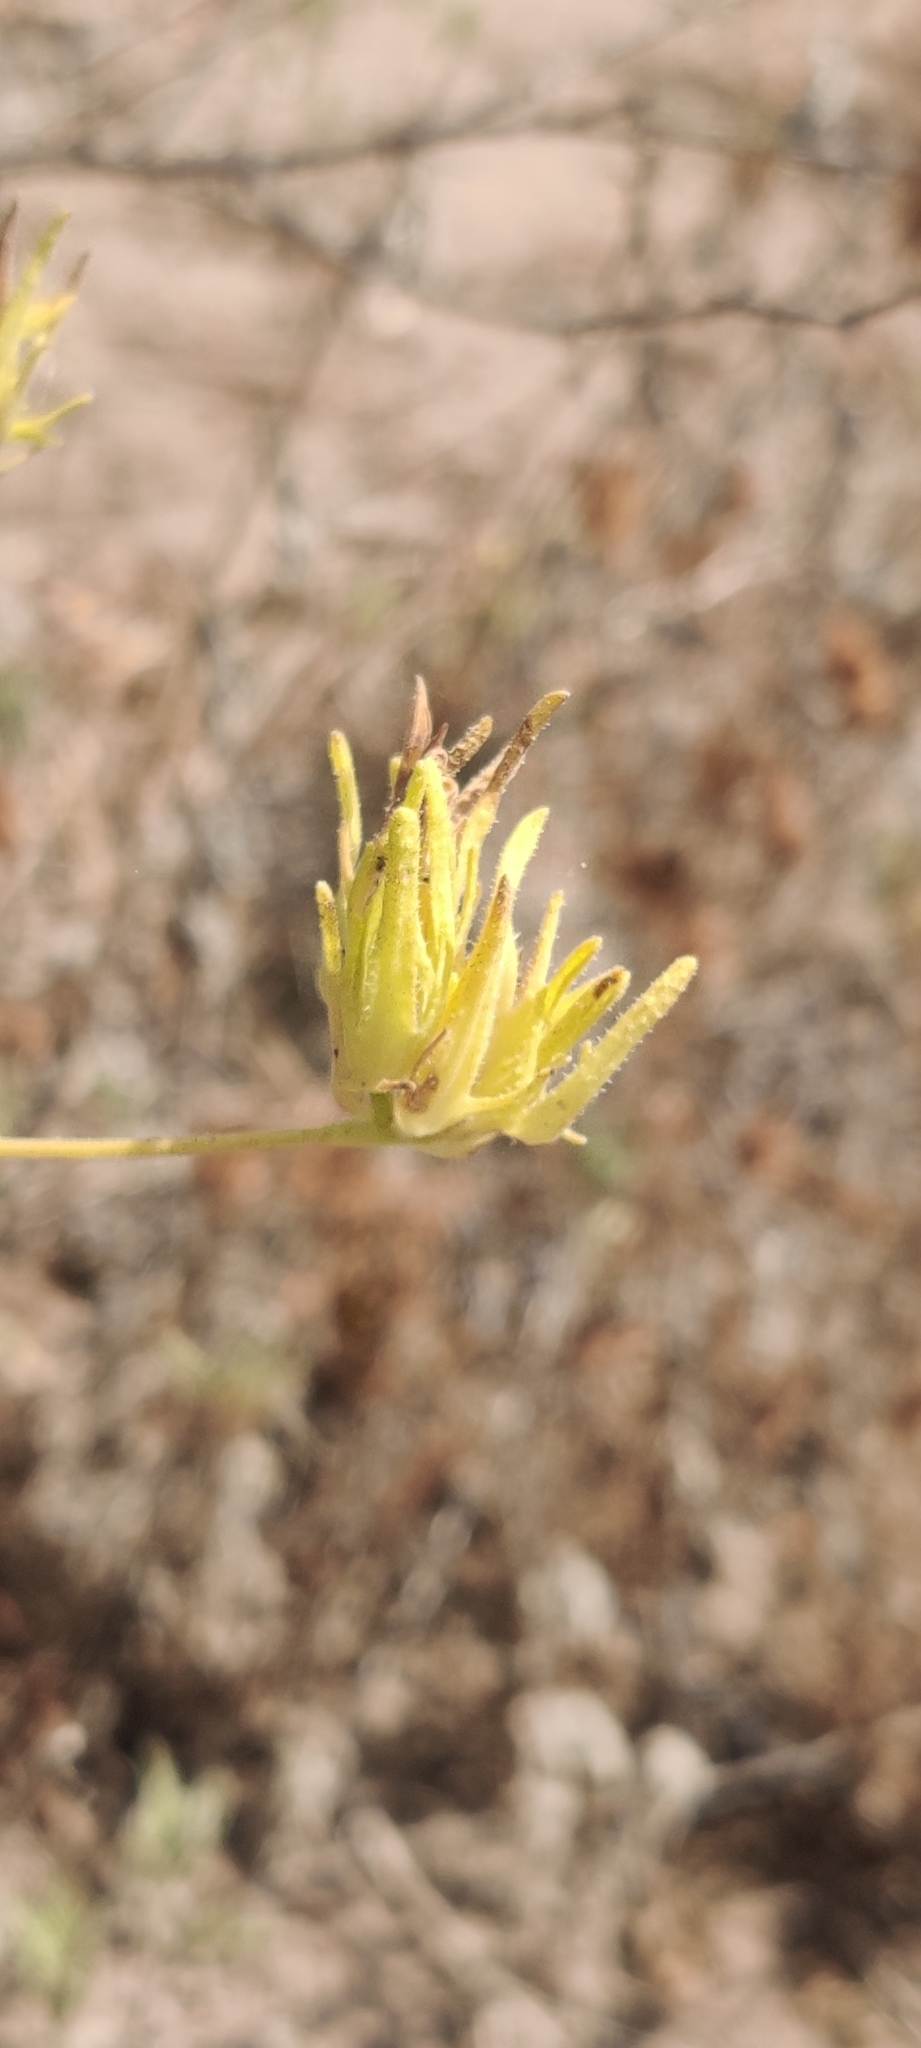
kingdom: Plantae
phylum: Tracheophyta
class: Magnoliopsida
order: Lamiales
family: Orobanchaceae
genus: Cordylanthus
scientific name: Cordylanthus rigidus
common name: Stiff-branch bird's-beak
